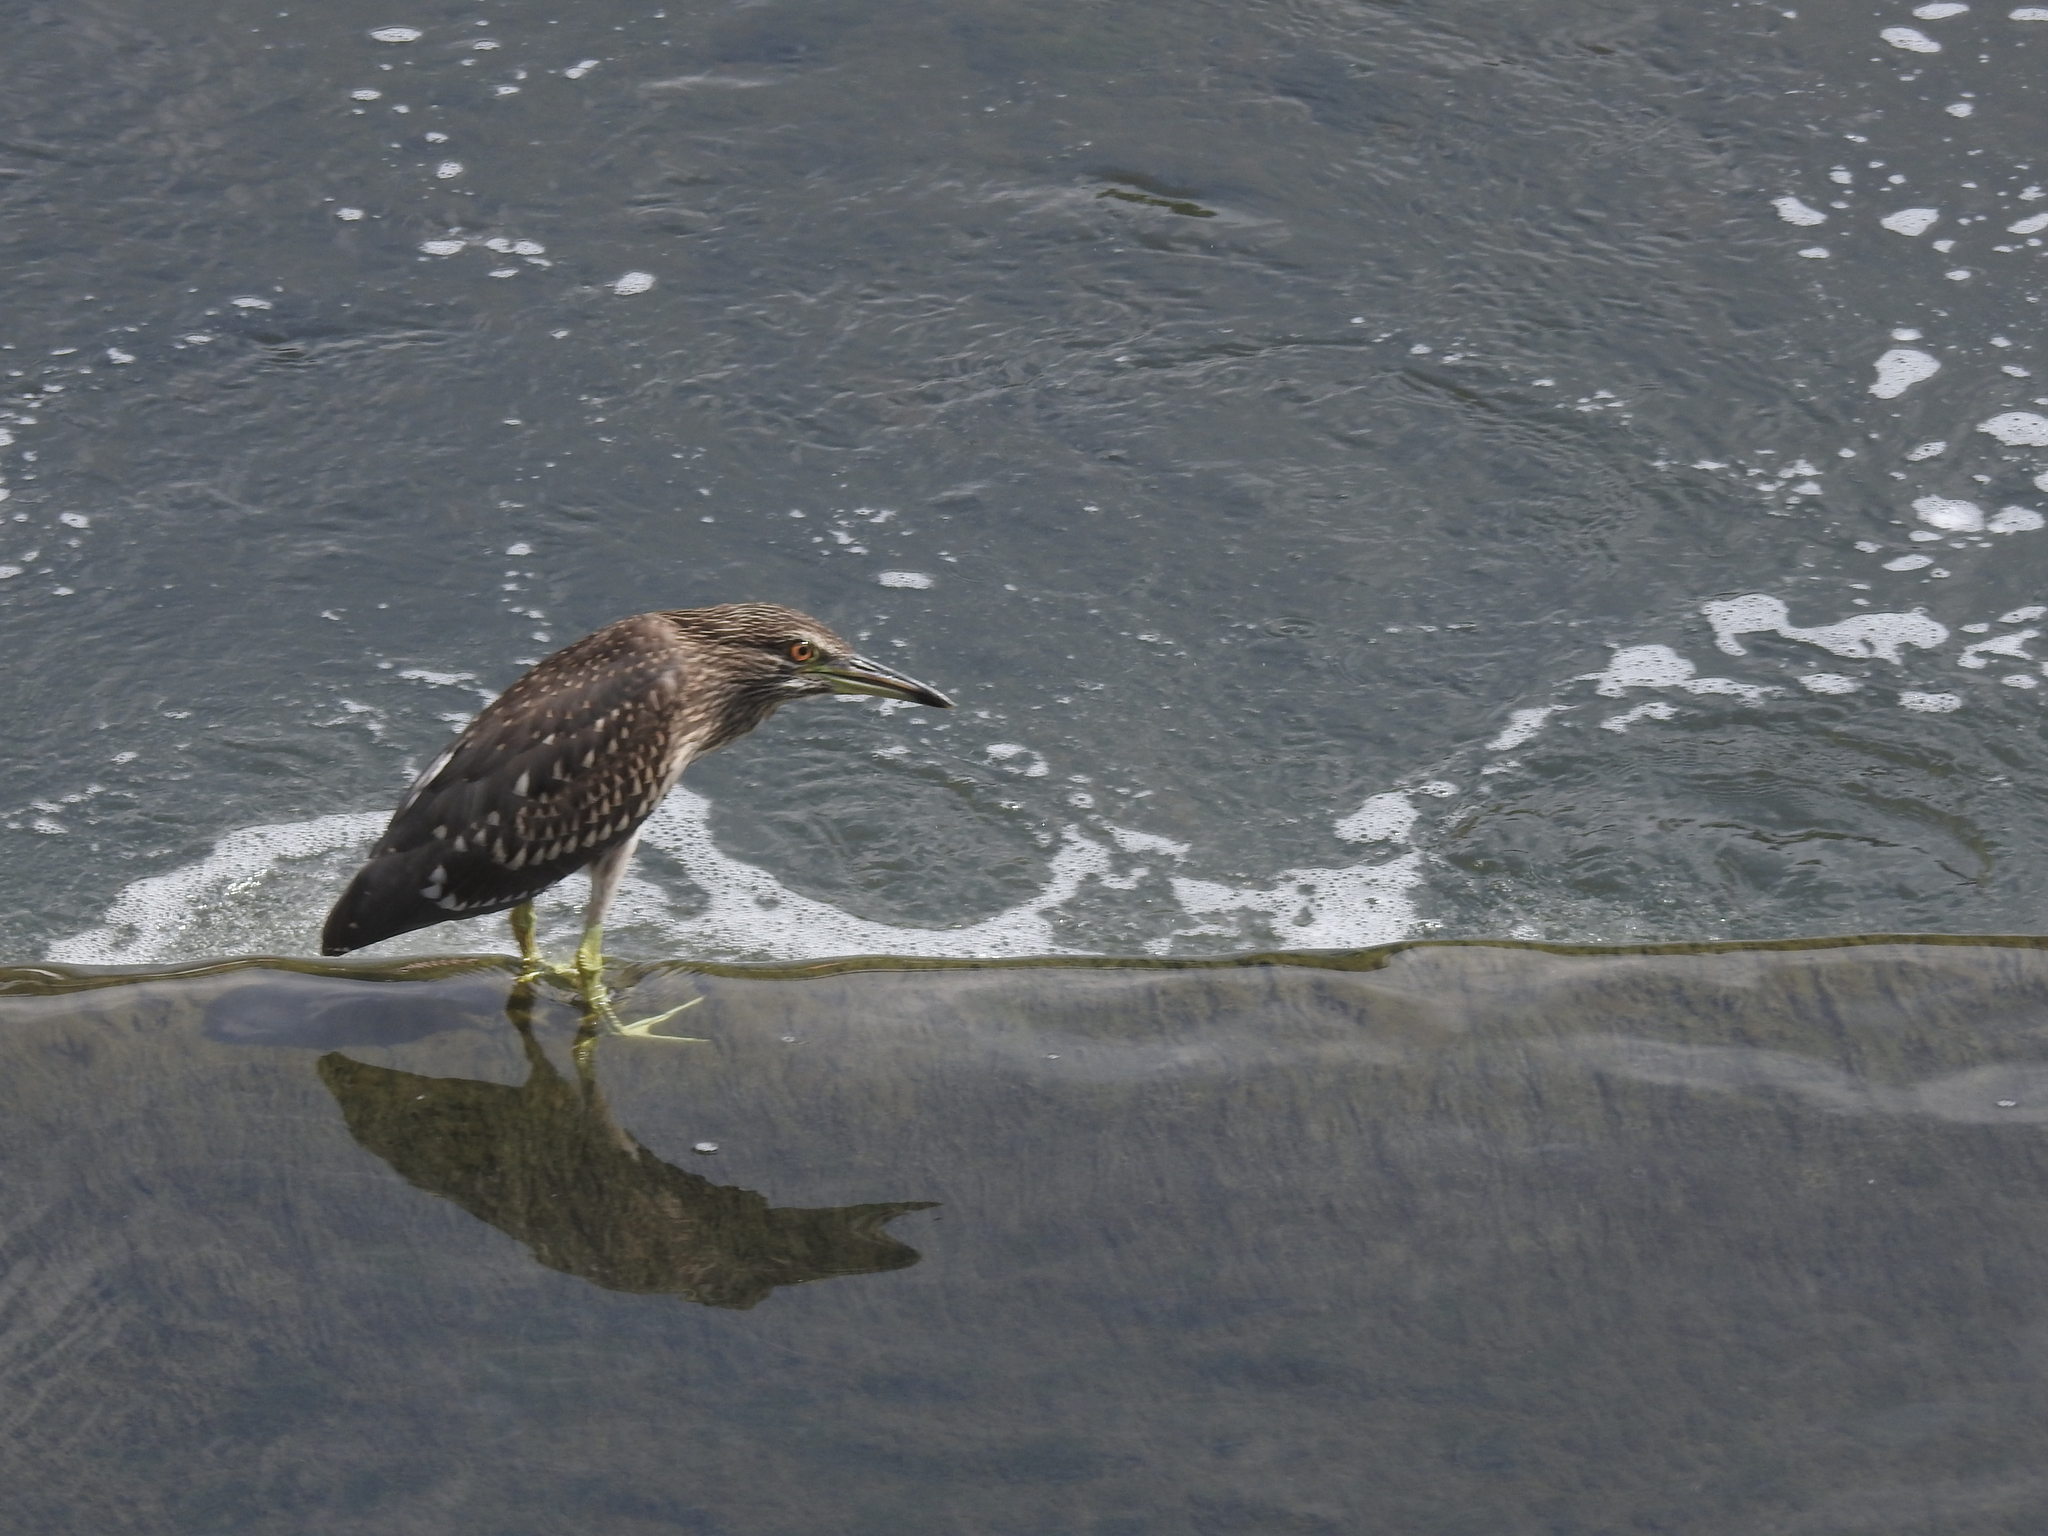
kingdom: Animalia
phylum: Chordata
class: Aves
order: Pelecaniformes
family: Ardeidae
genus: Nycticorax
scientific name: Nycticorax nycticorax
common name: Black-crowned night heron
